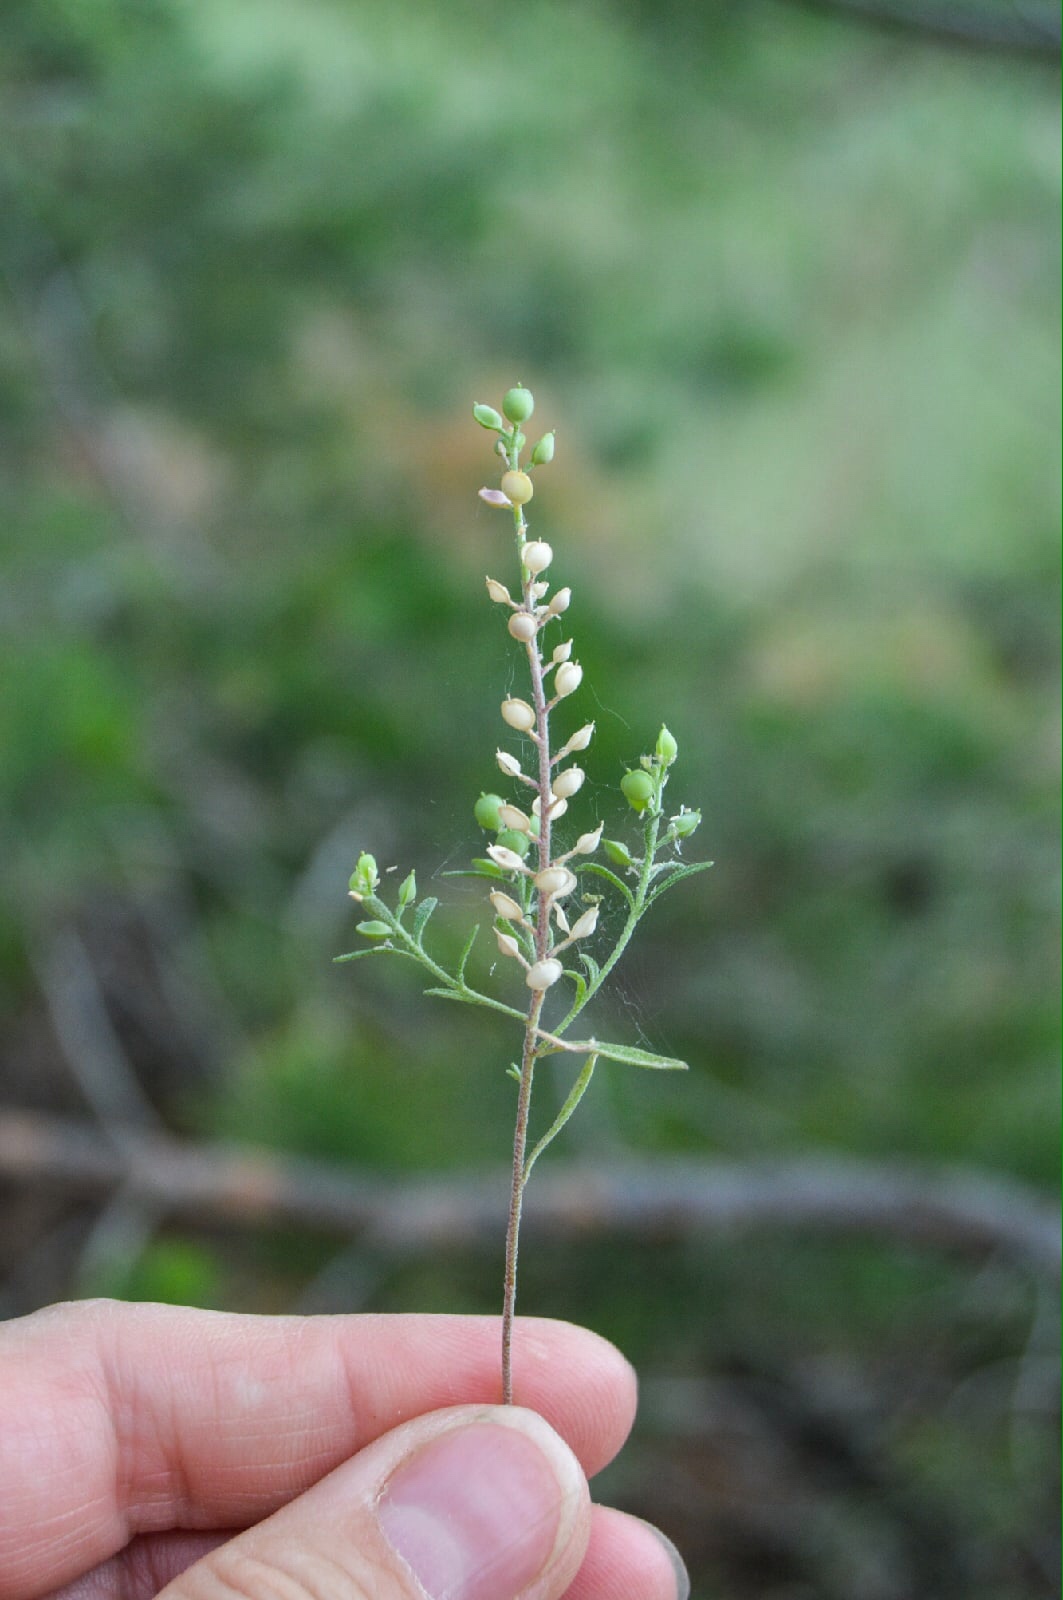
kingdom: Plantae
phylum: Tracheophyta
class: Magnoliopsida
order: Brassicales
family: Brassicaceae
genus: Alyssum
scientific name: Alyssum turkestanicum
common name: Desert alyssum
